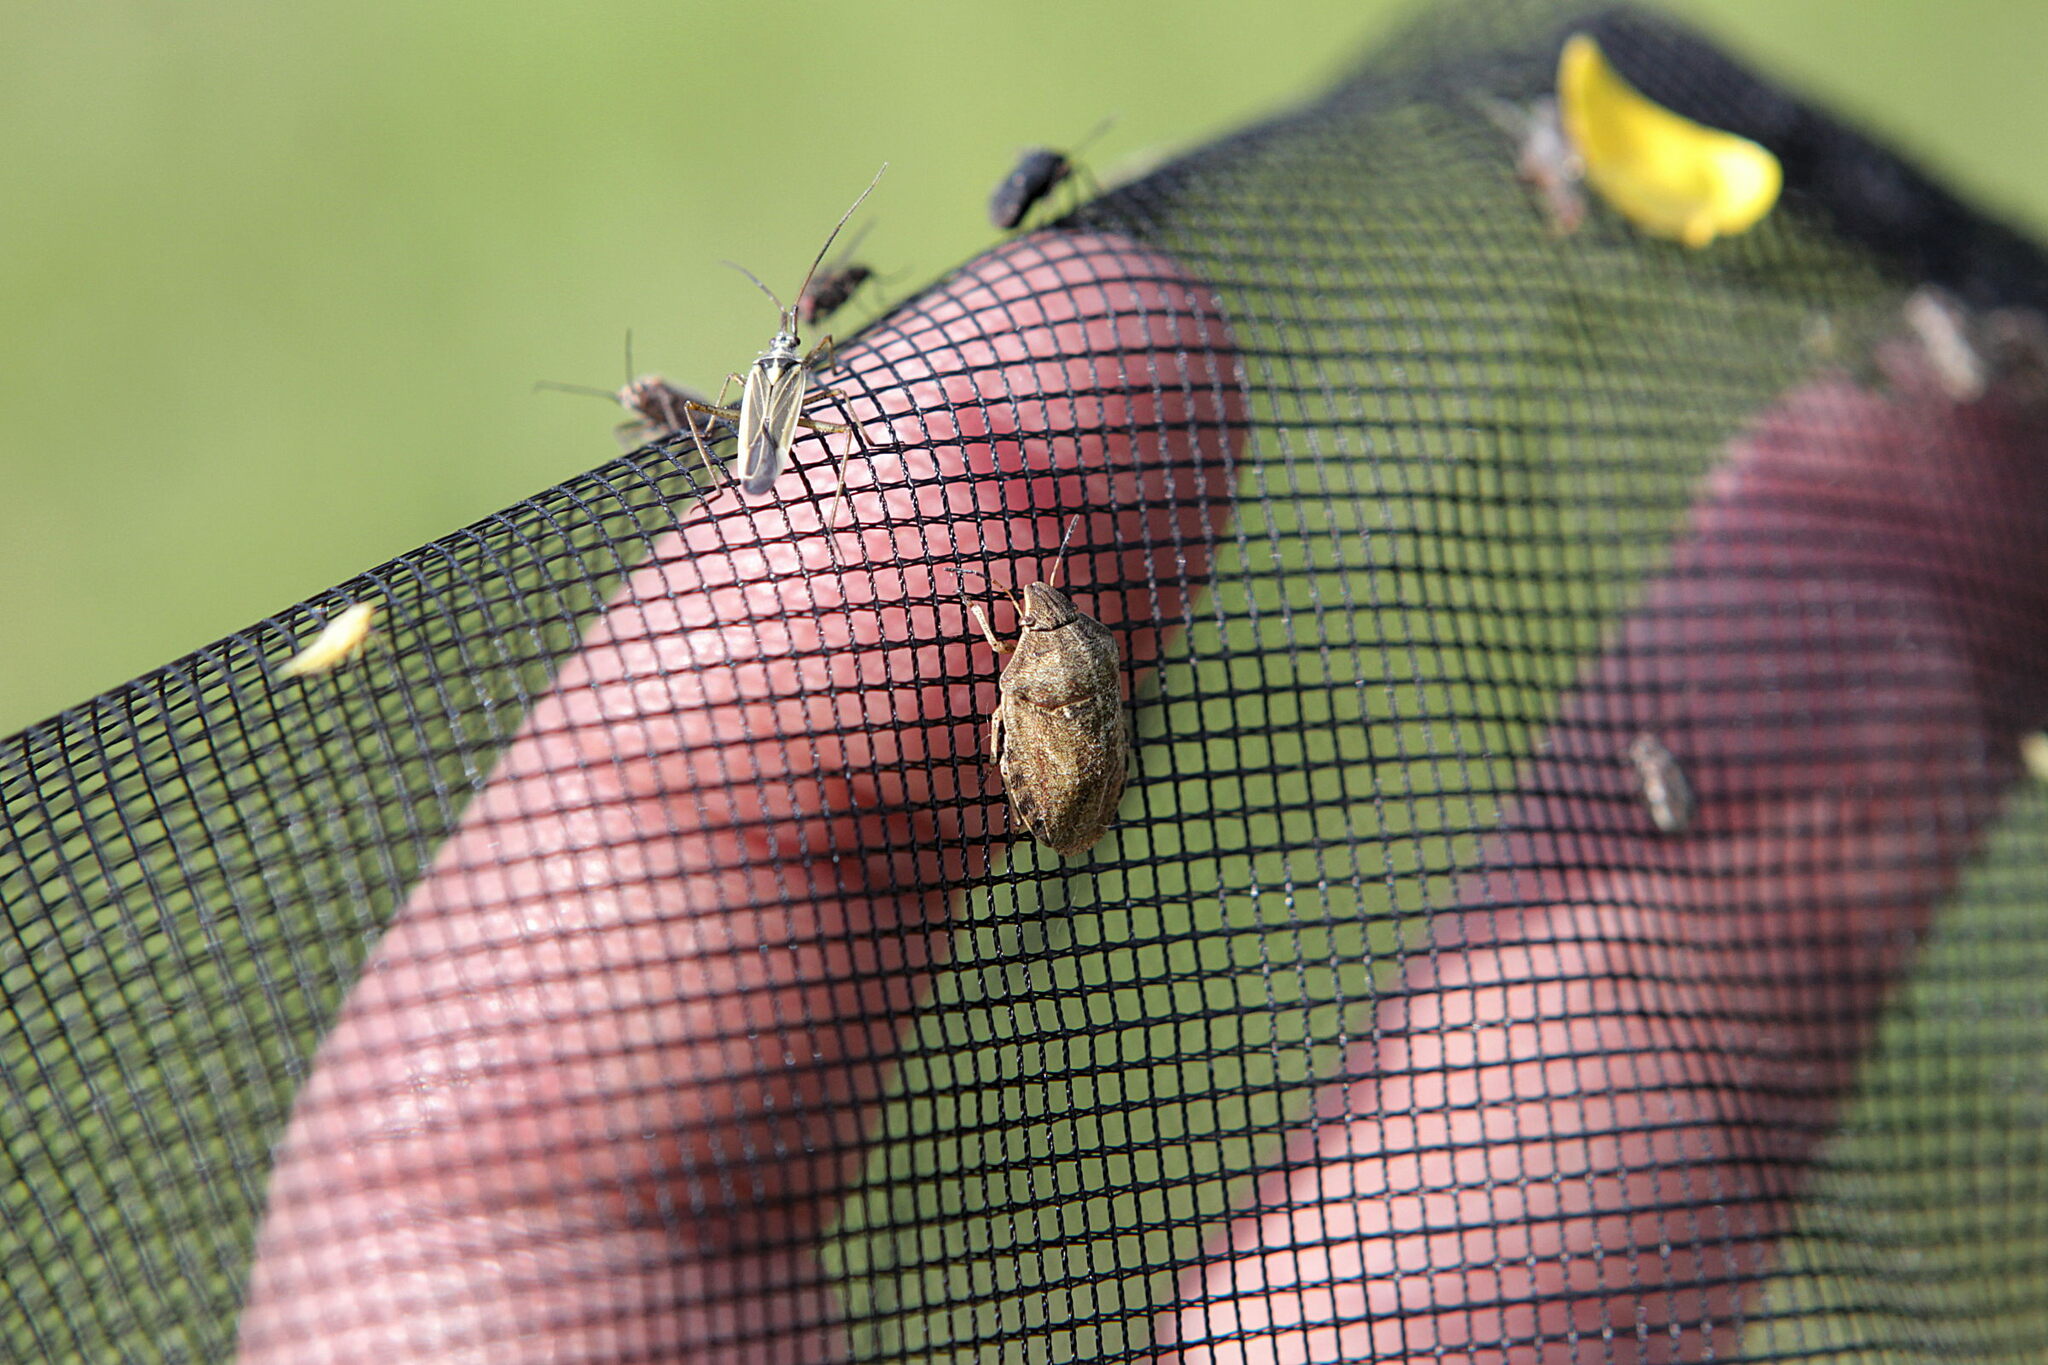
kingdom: Animalia
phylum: Arthropoda
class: Insecta
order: Hemiptera
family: Scutelleridae
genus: Eurygaster
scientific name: Eurygaster testudinaria
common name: Tortoise bug
